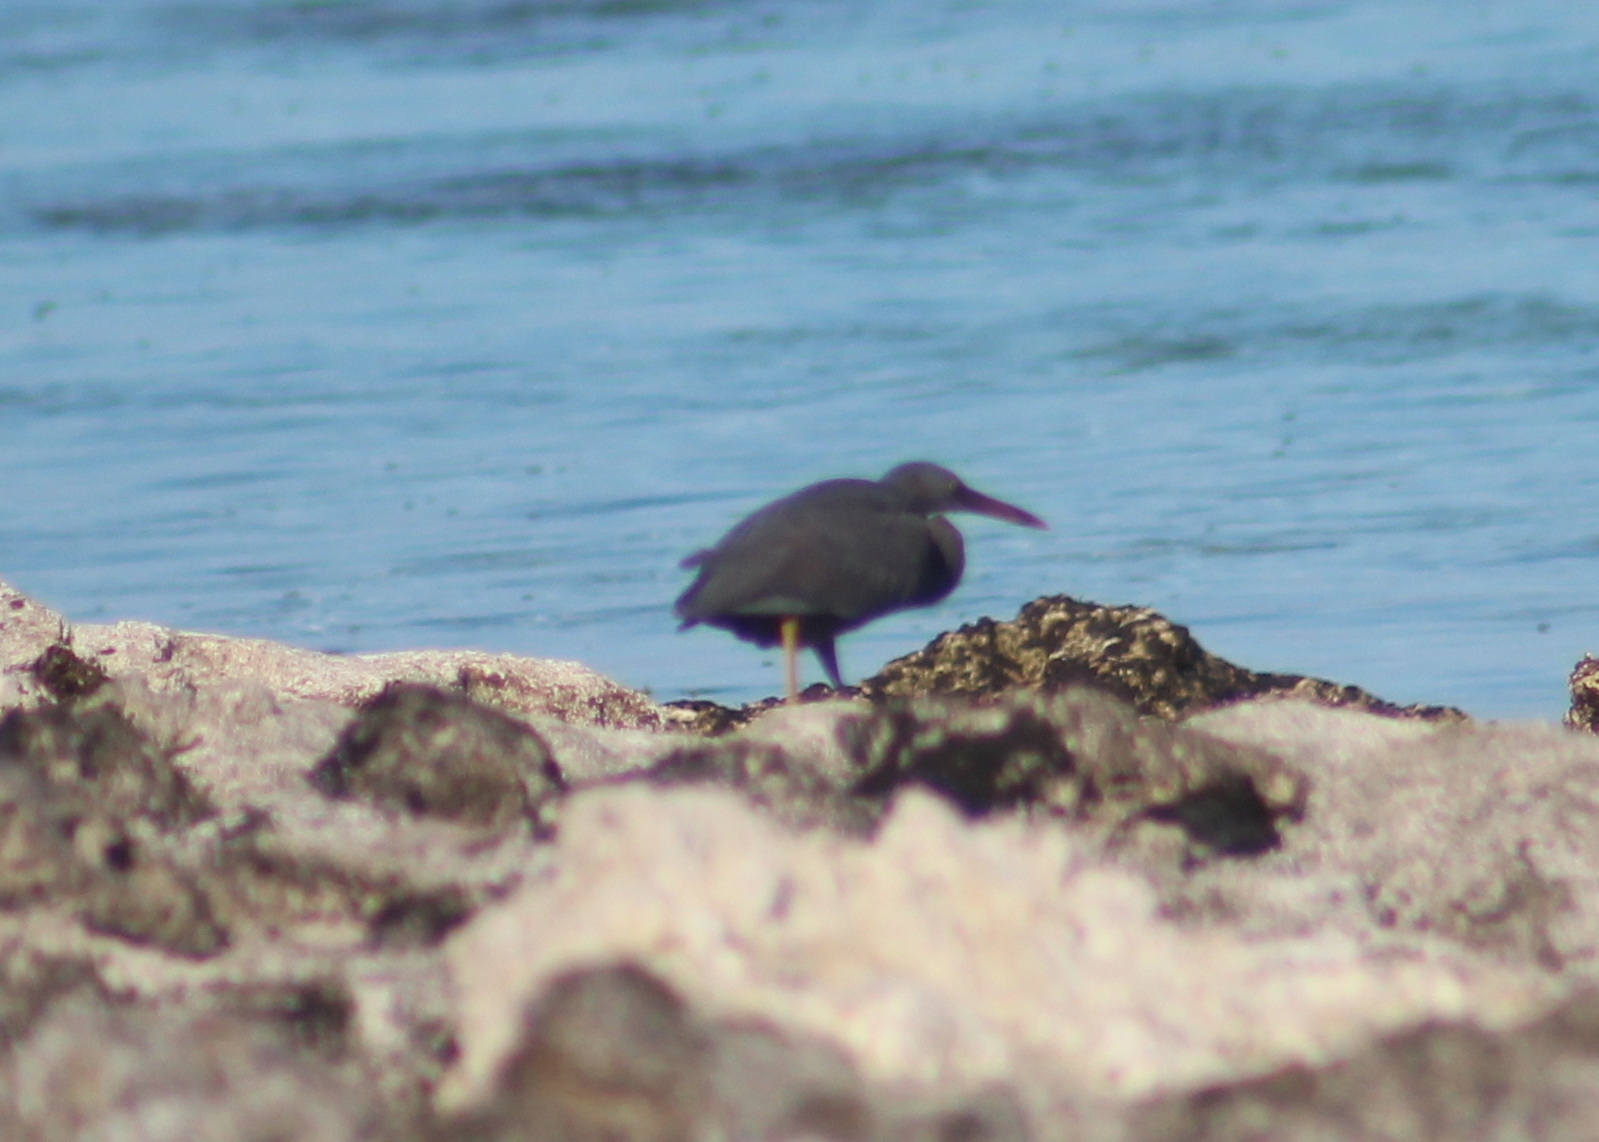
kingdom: Animalia
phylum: Chordata
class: Aves
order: Pelecaniformes
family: Ardeidae
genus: Egretta
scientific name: Egretta sacra
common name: Pacific reef heron
